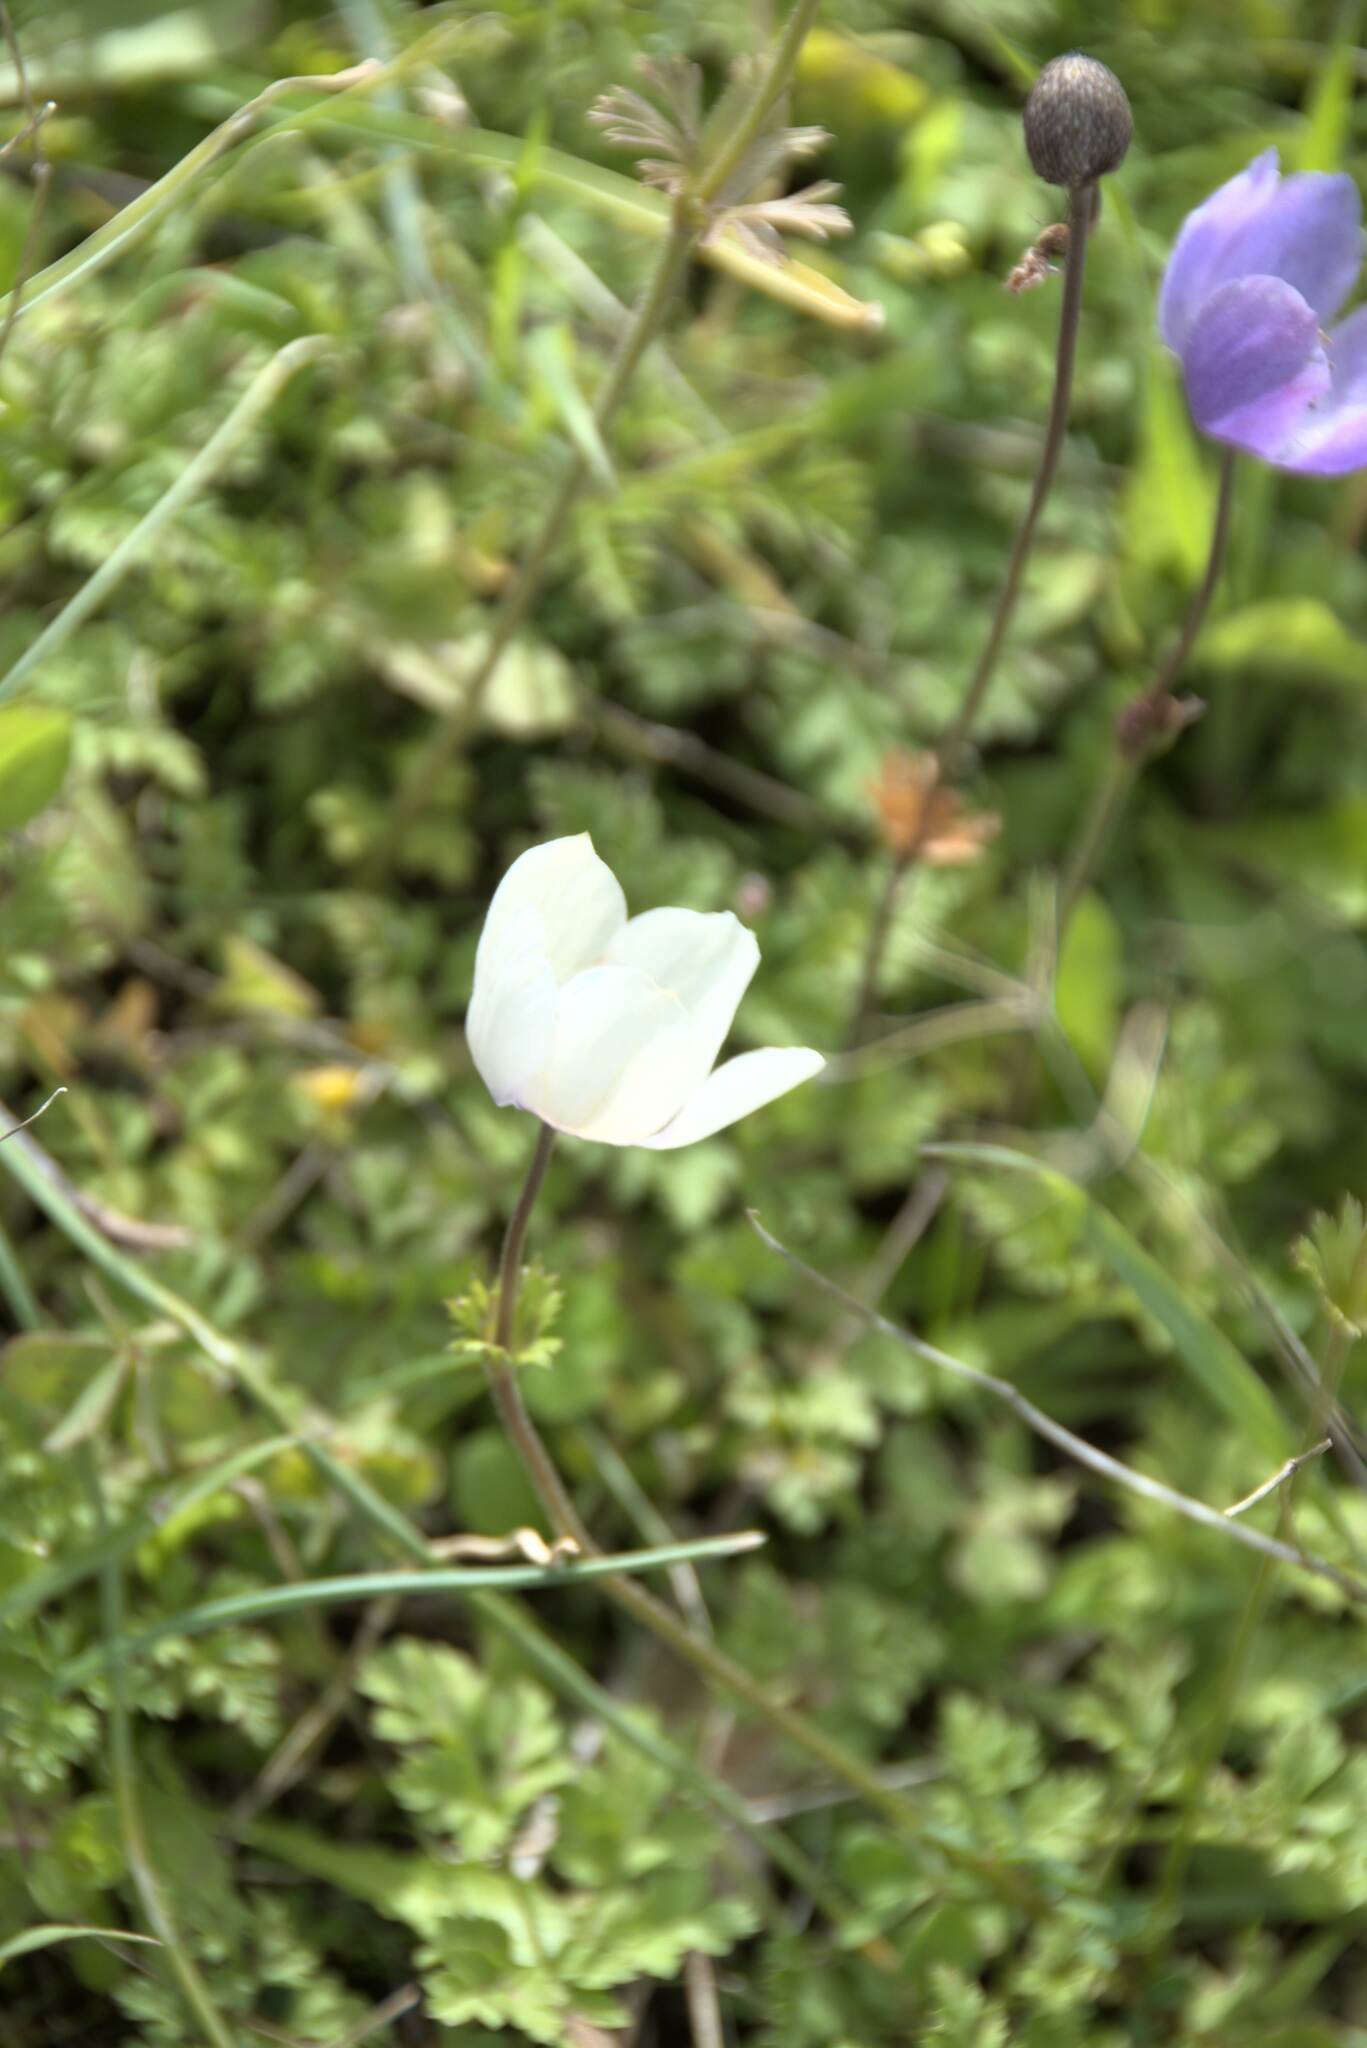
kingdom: Plantae
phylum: Tracheophyta
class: Magnoliopsida
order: Ranunculales
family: Ranunculaceae
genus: Anemone
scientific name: Anemone coronaria
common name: Poppy anemone
